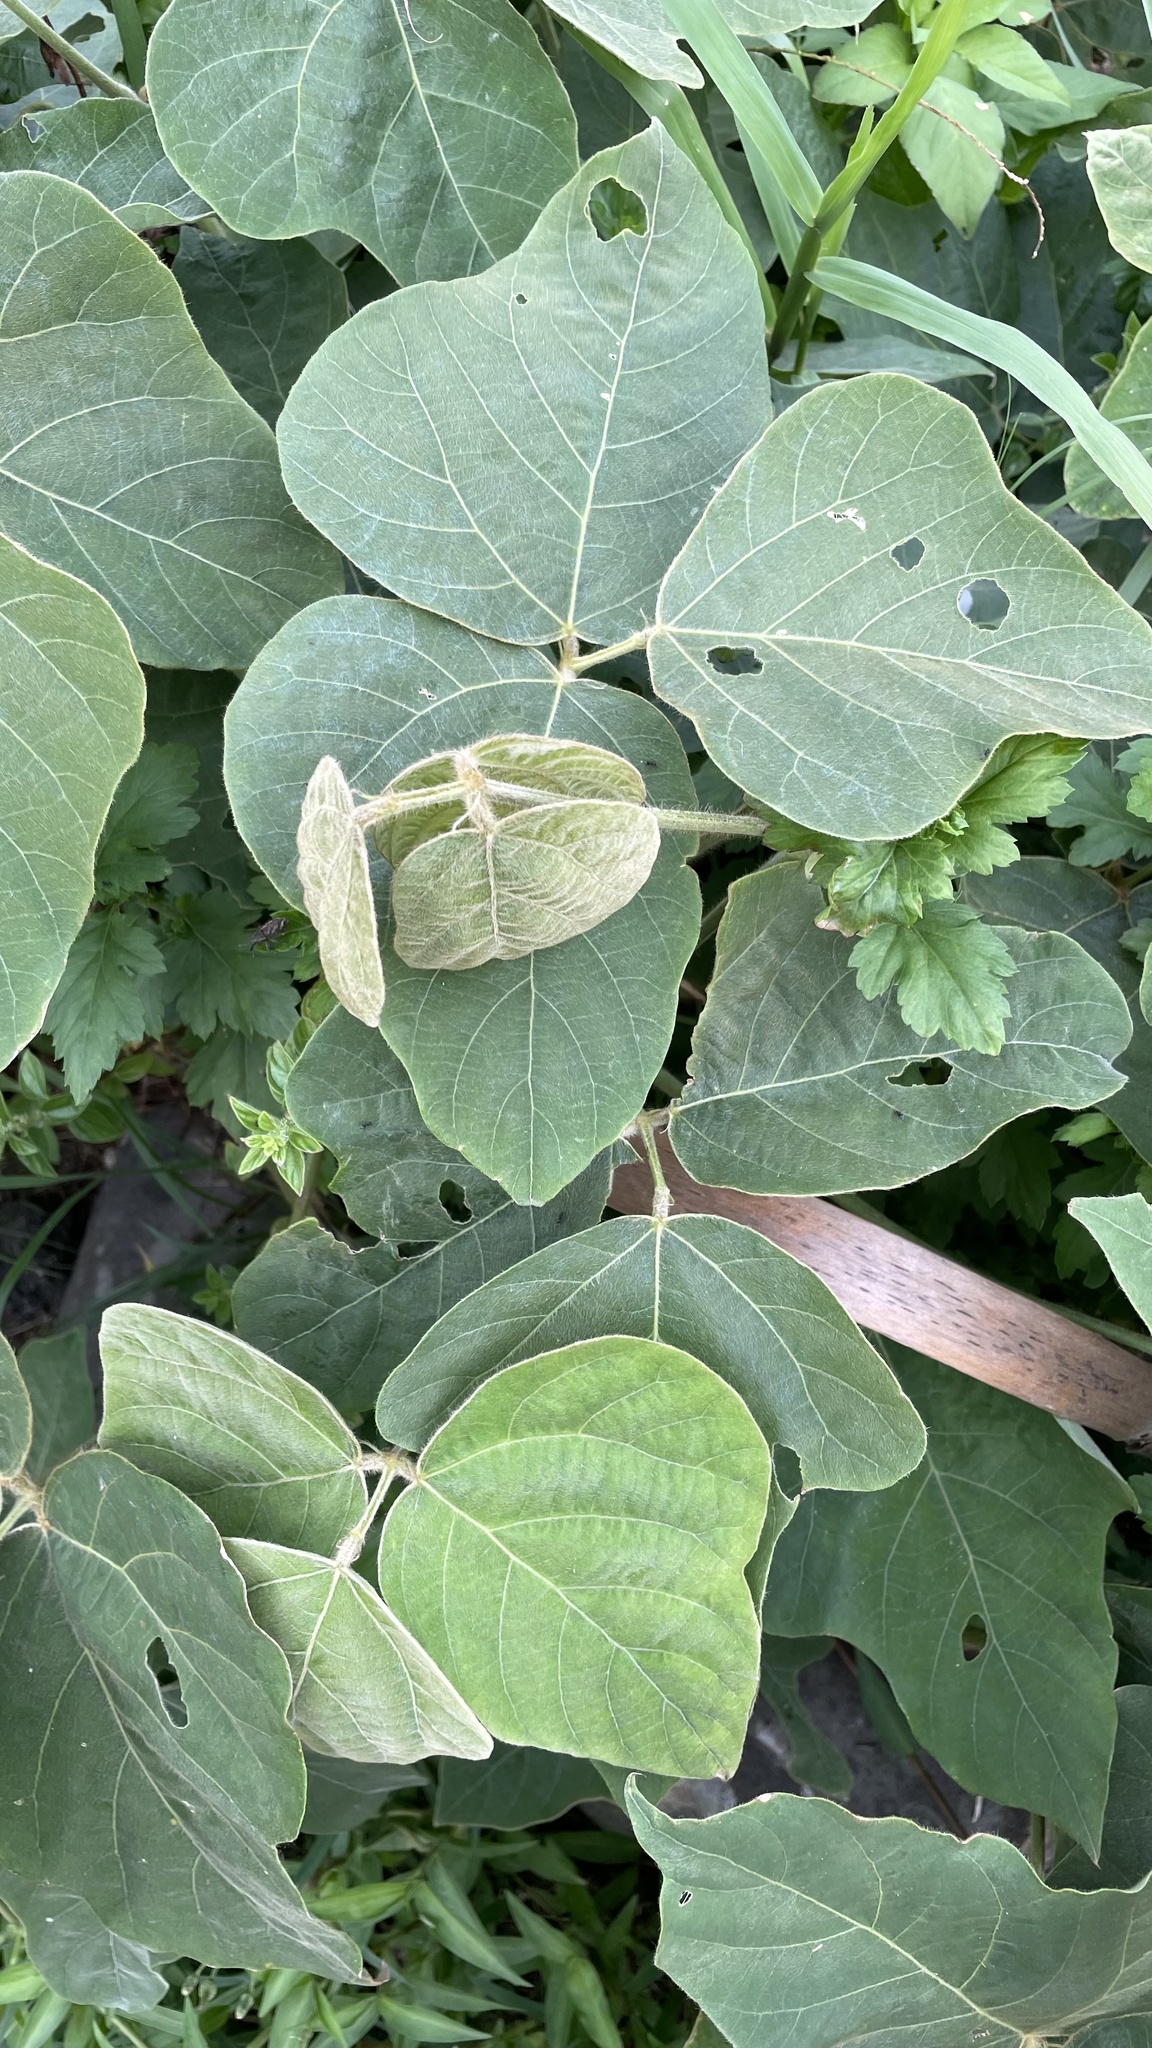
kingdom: Plantae
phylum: Tracheophyta
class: Magnoliopsida
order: Fabales
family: Fabaceae
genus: Pueraria
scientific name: Pueraria montana
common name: Kudzu
